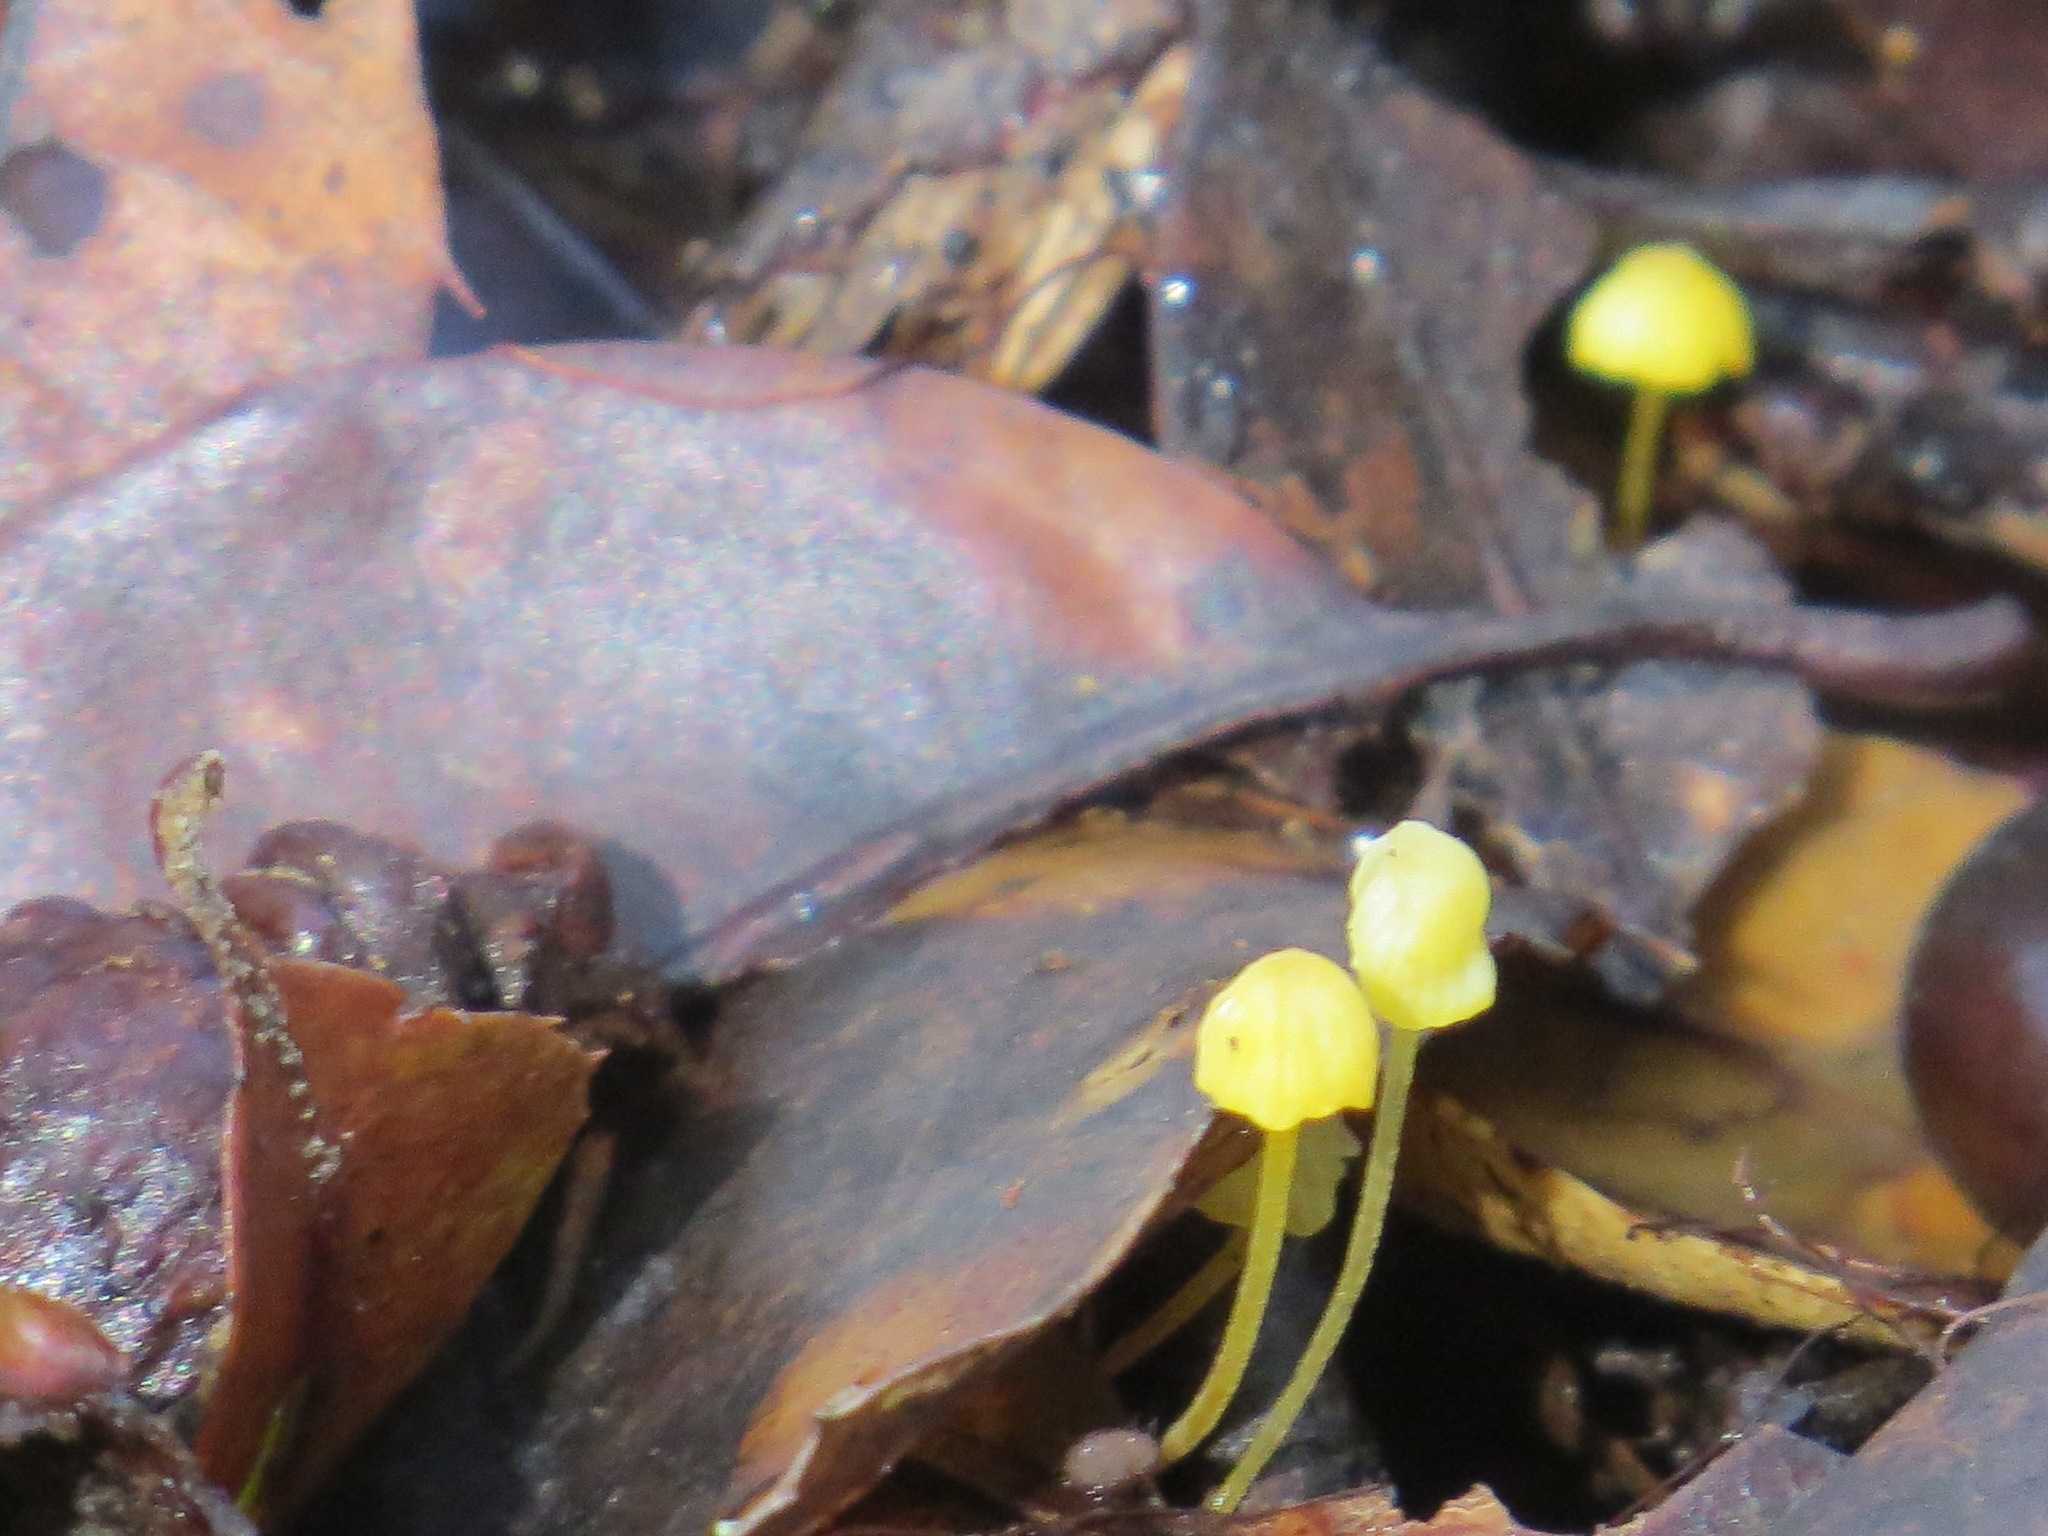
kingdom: Fungi
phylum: Basidiomycota
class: Agaricomycetes
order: Agaricales
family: Mycenaceae
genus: Mycena
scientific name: Mycena oregonensis
